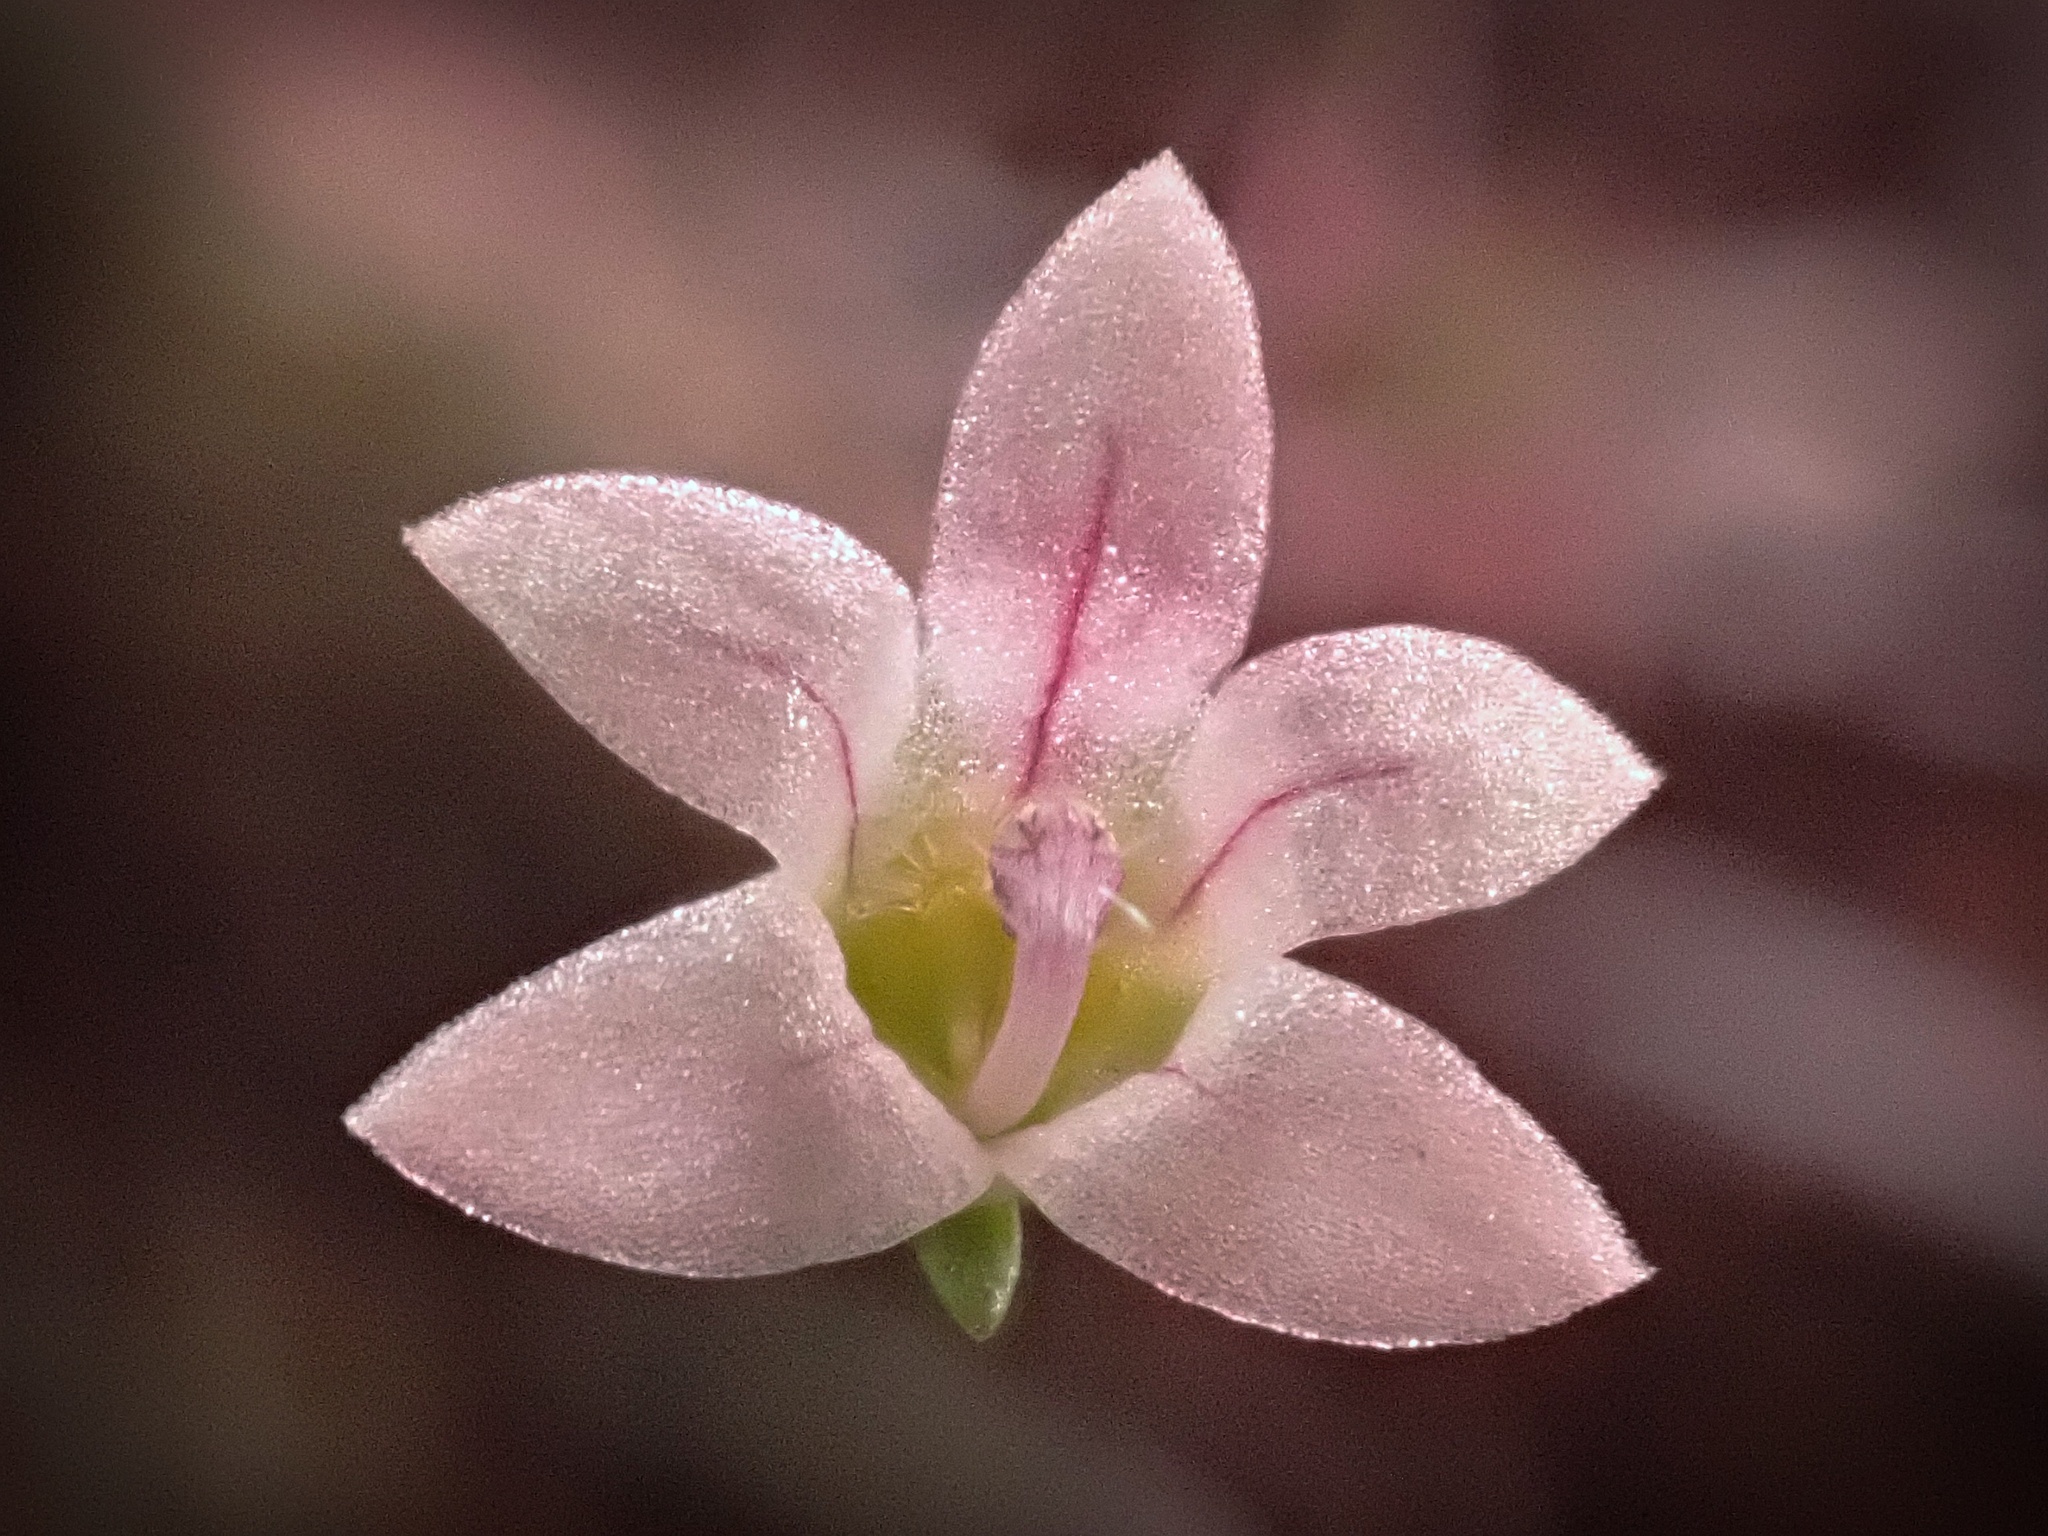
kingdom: Plantae
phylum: Tracheophyta
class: Magnoliopsida
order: Asterales
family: Campanulaceae
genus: Nemacladus
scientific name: Nemacladus ramosissimus
